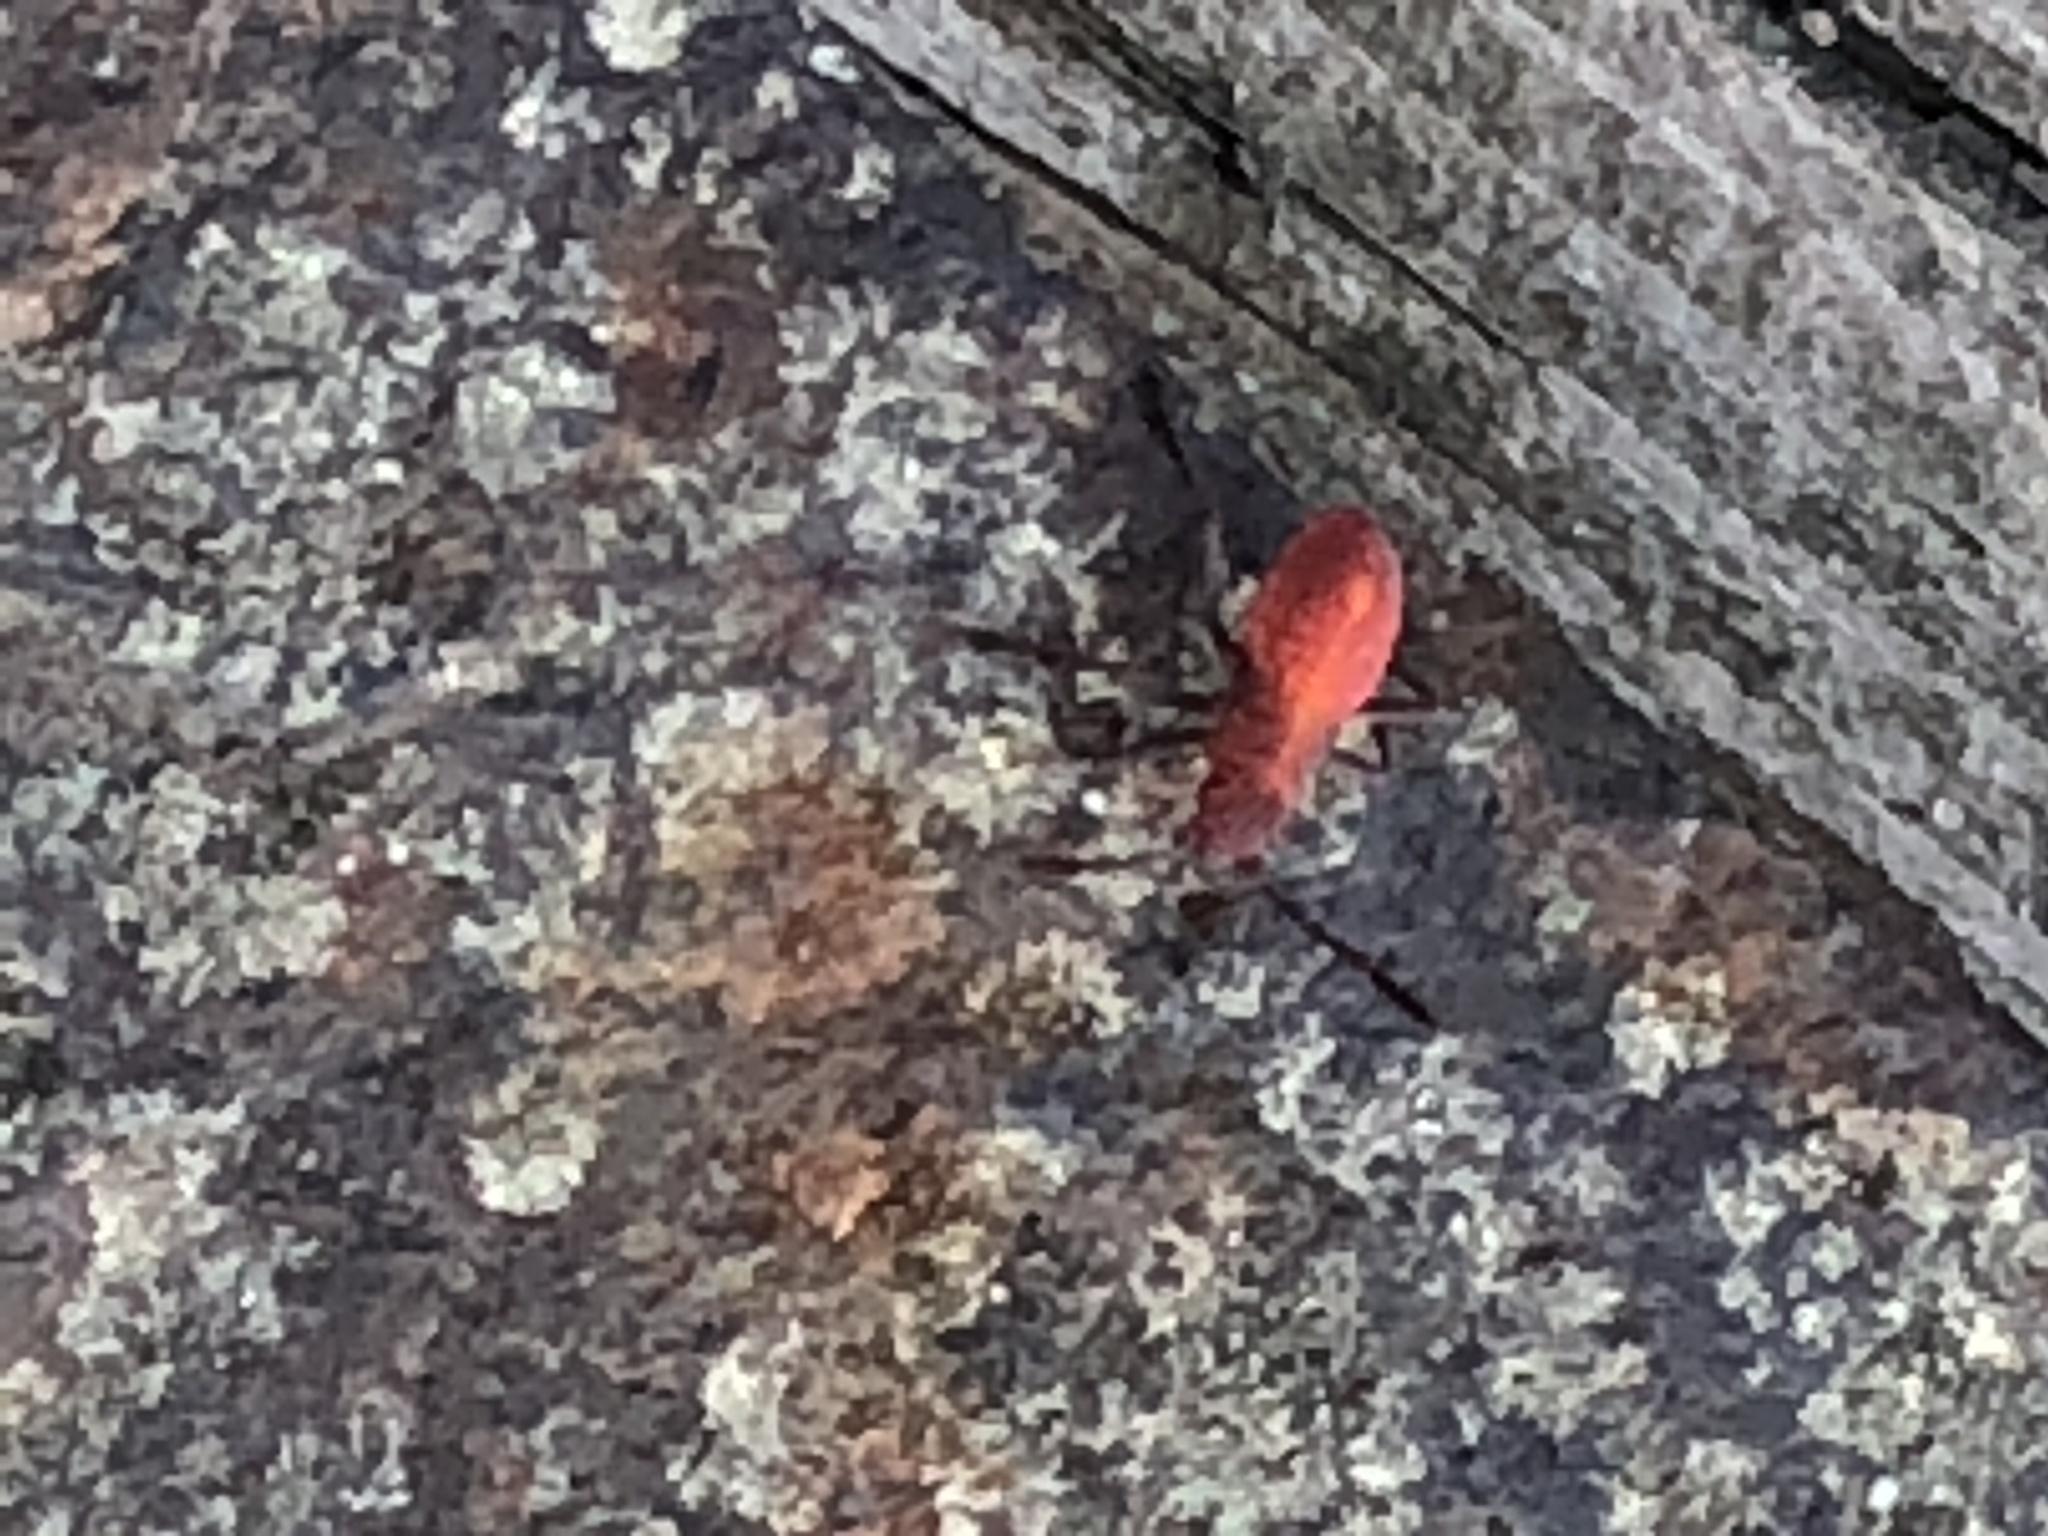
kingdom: Animalia
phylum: Arthropoda
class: Insecta
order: Hemiptera
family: Rhopalidae
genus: Boisea
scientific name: Boisea trivittata
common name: Boxelder bug
